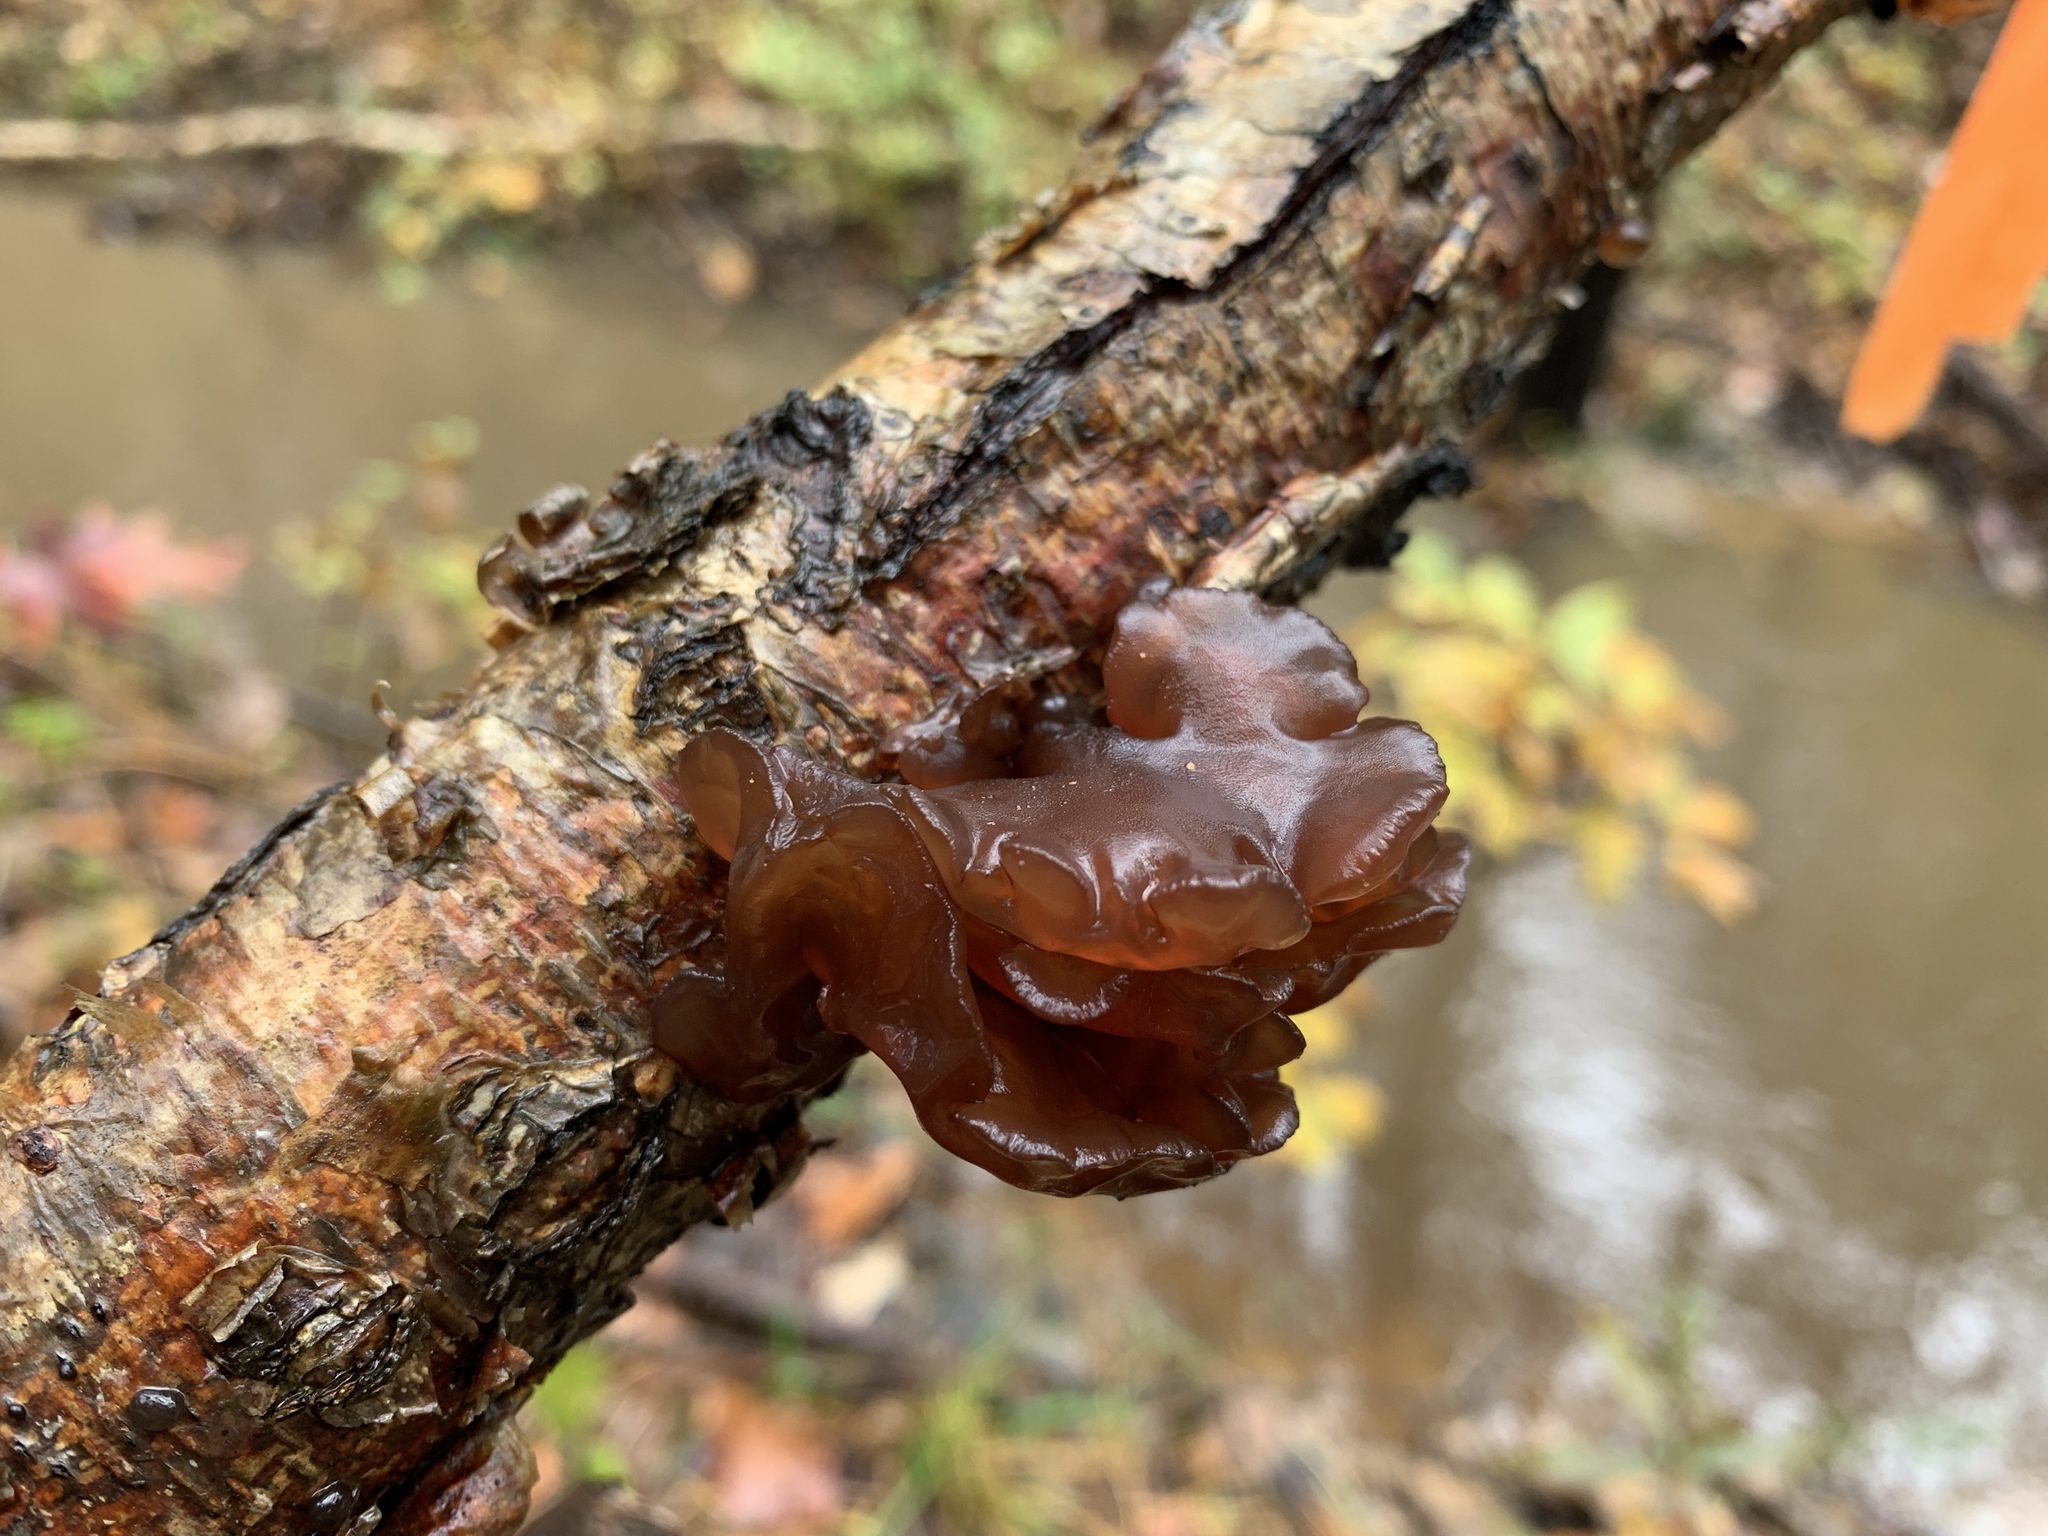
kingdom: Fungi
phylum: Basidiomycota
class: Agaricomycetes
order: Auriculariales
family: Auriculariaceae
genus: Exidia
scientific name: Exidia
